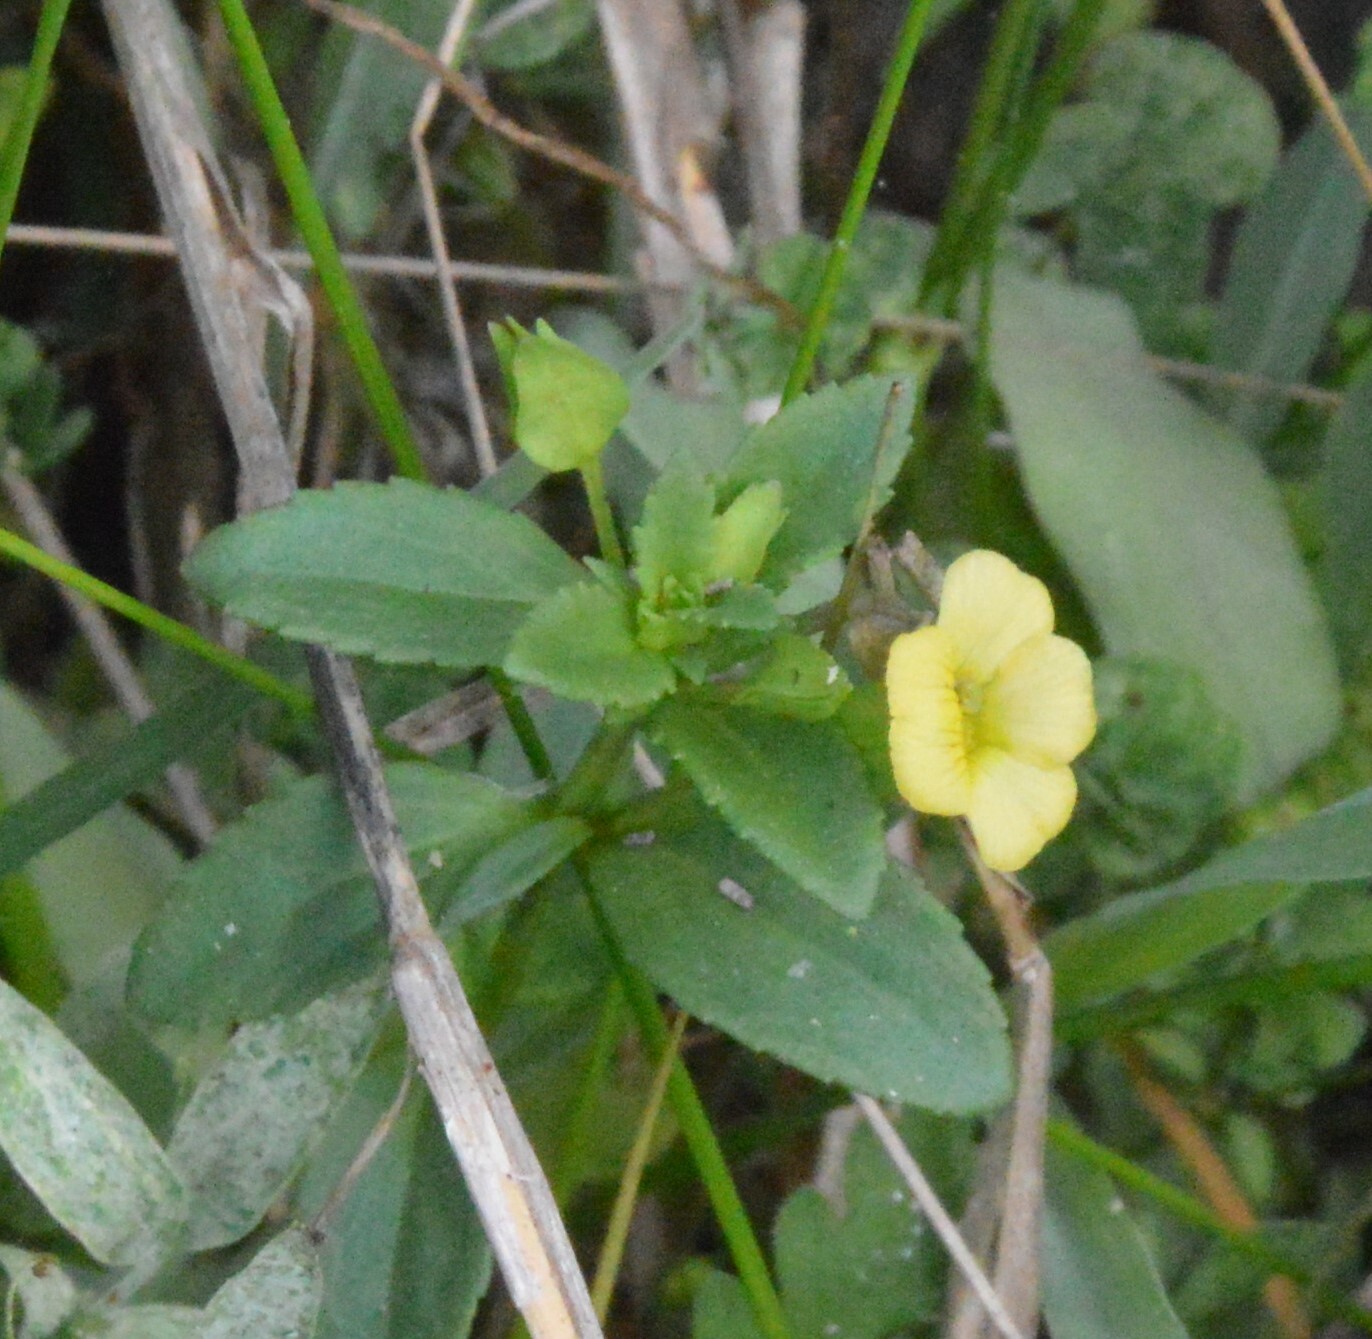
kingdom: Plantae
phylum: Tracheophyta
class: Magnoliopsida
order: Lamiales
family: Plantaginaceae
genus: Mecardonia
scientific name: Mecardonia procumbens
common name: Baby jump-up
